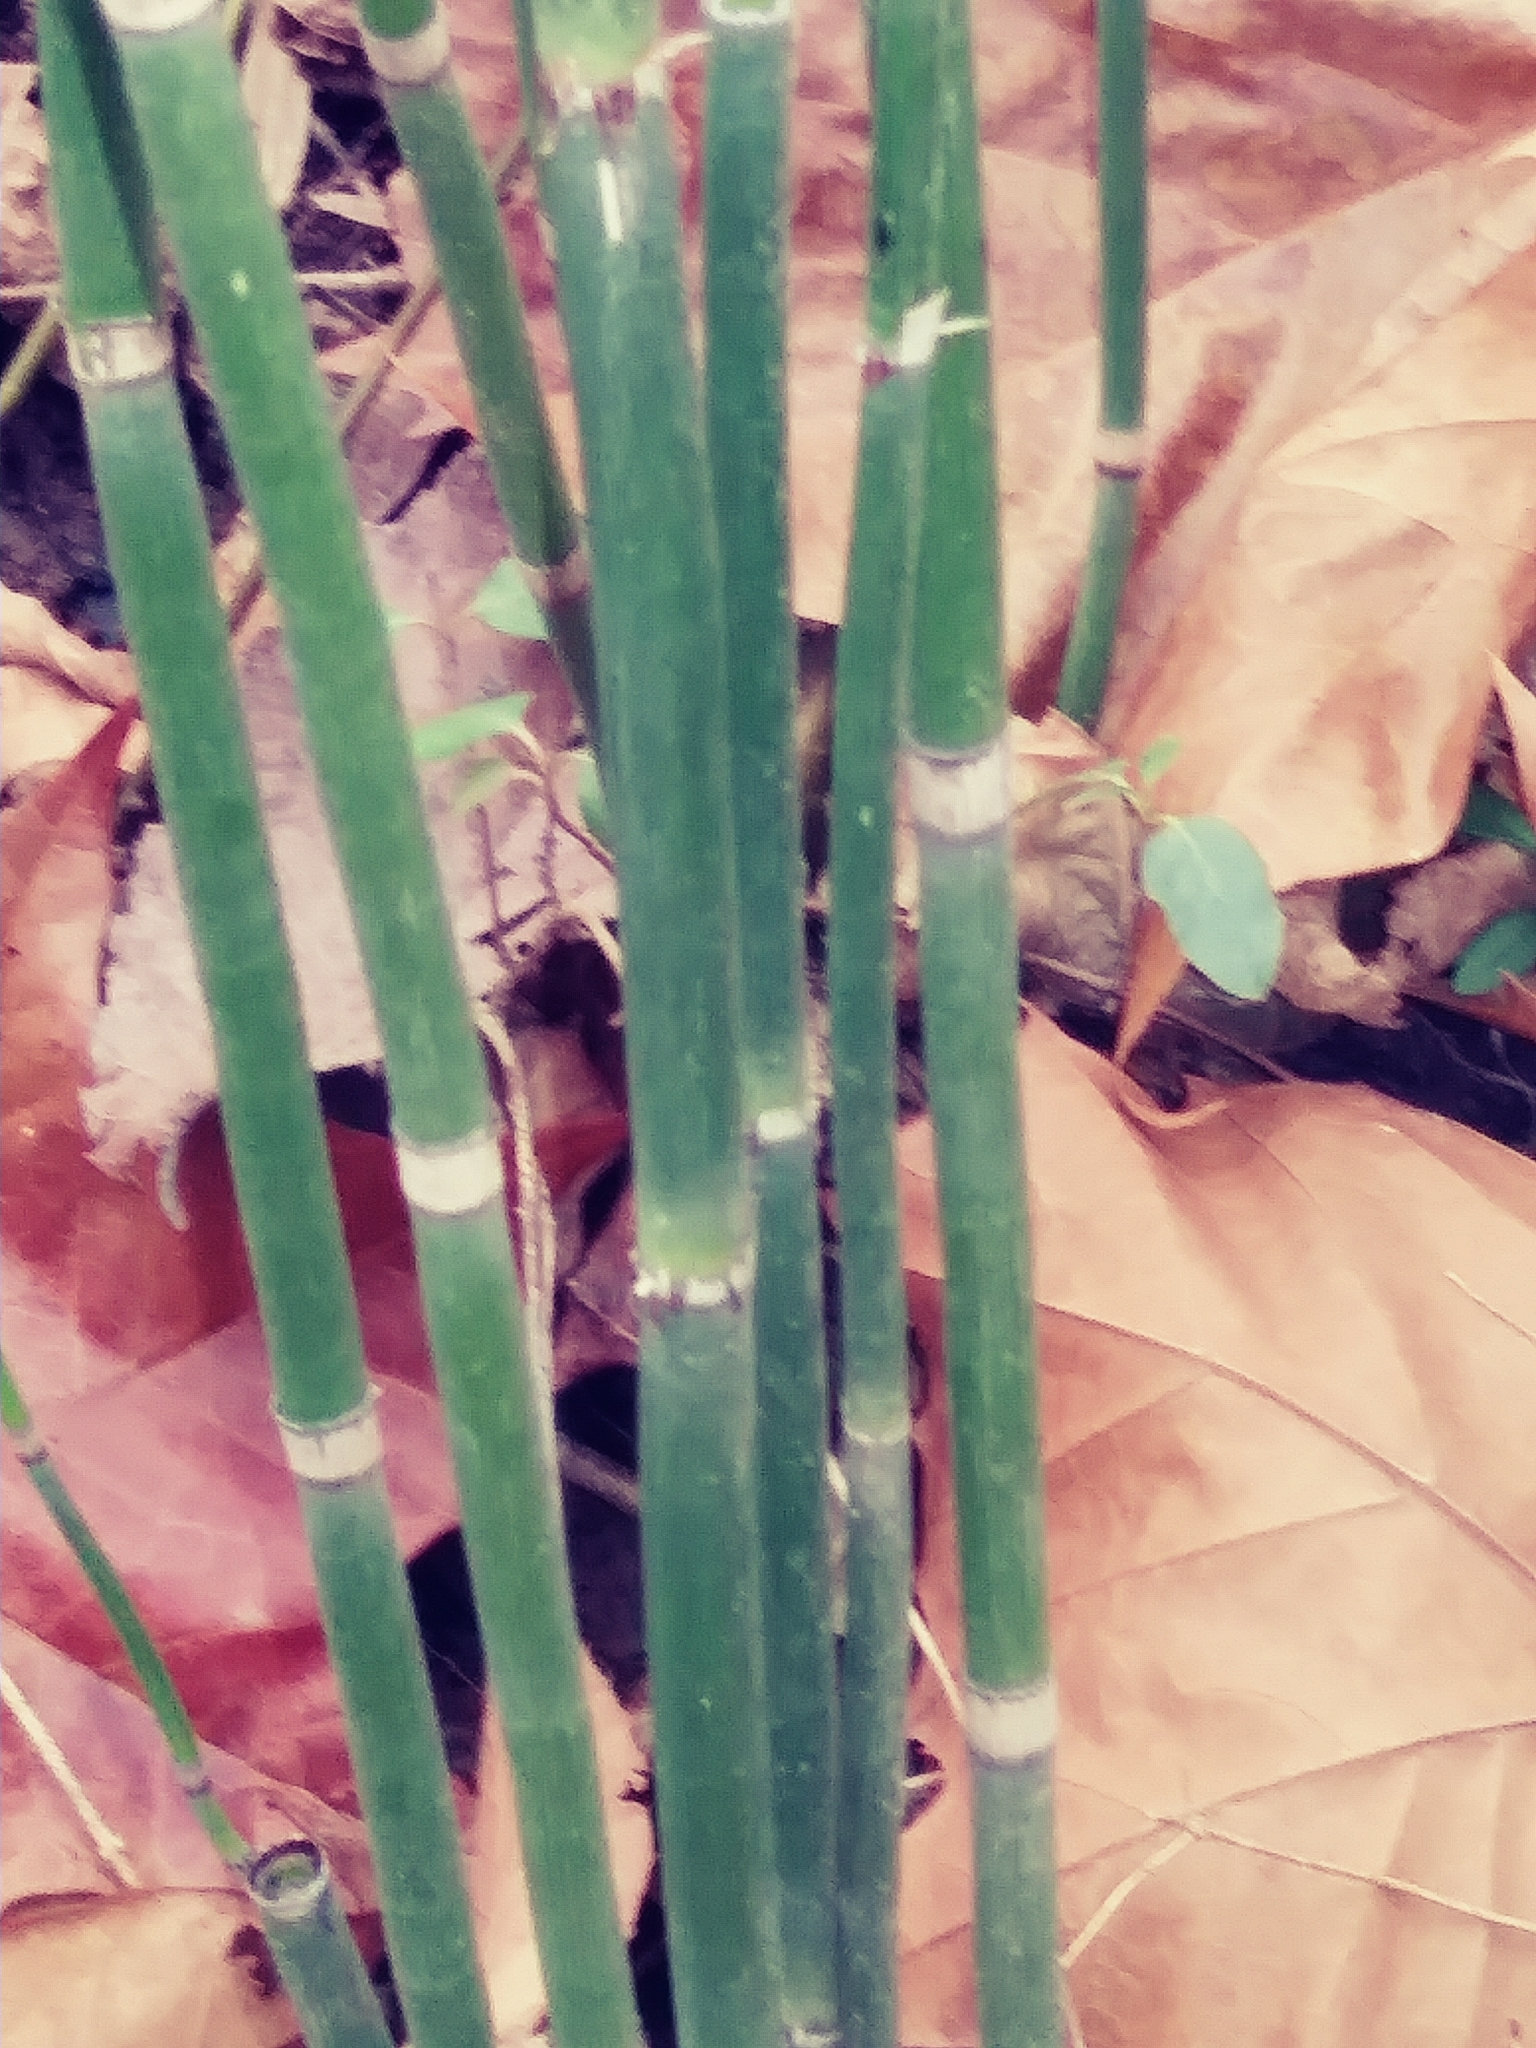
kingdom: Plantae
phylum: Tracheophyta
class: Polypodiopsida
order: Equisetales
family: Equisetaceae
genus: Equisetum
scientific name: Equisetum hyemale
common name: Rough horsetail
